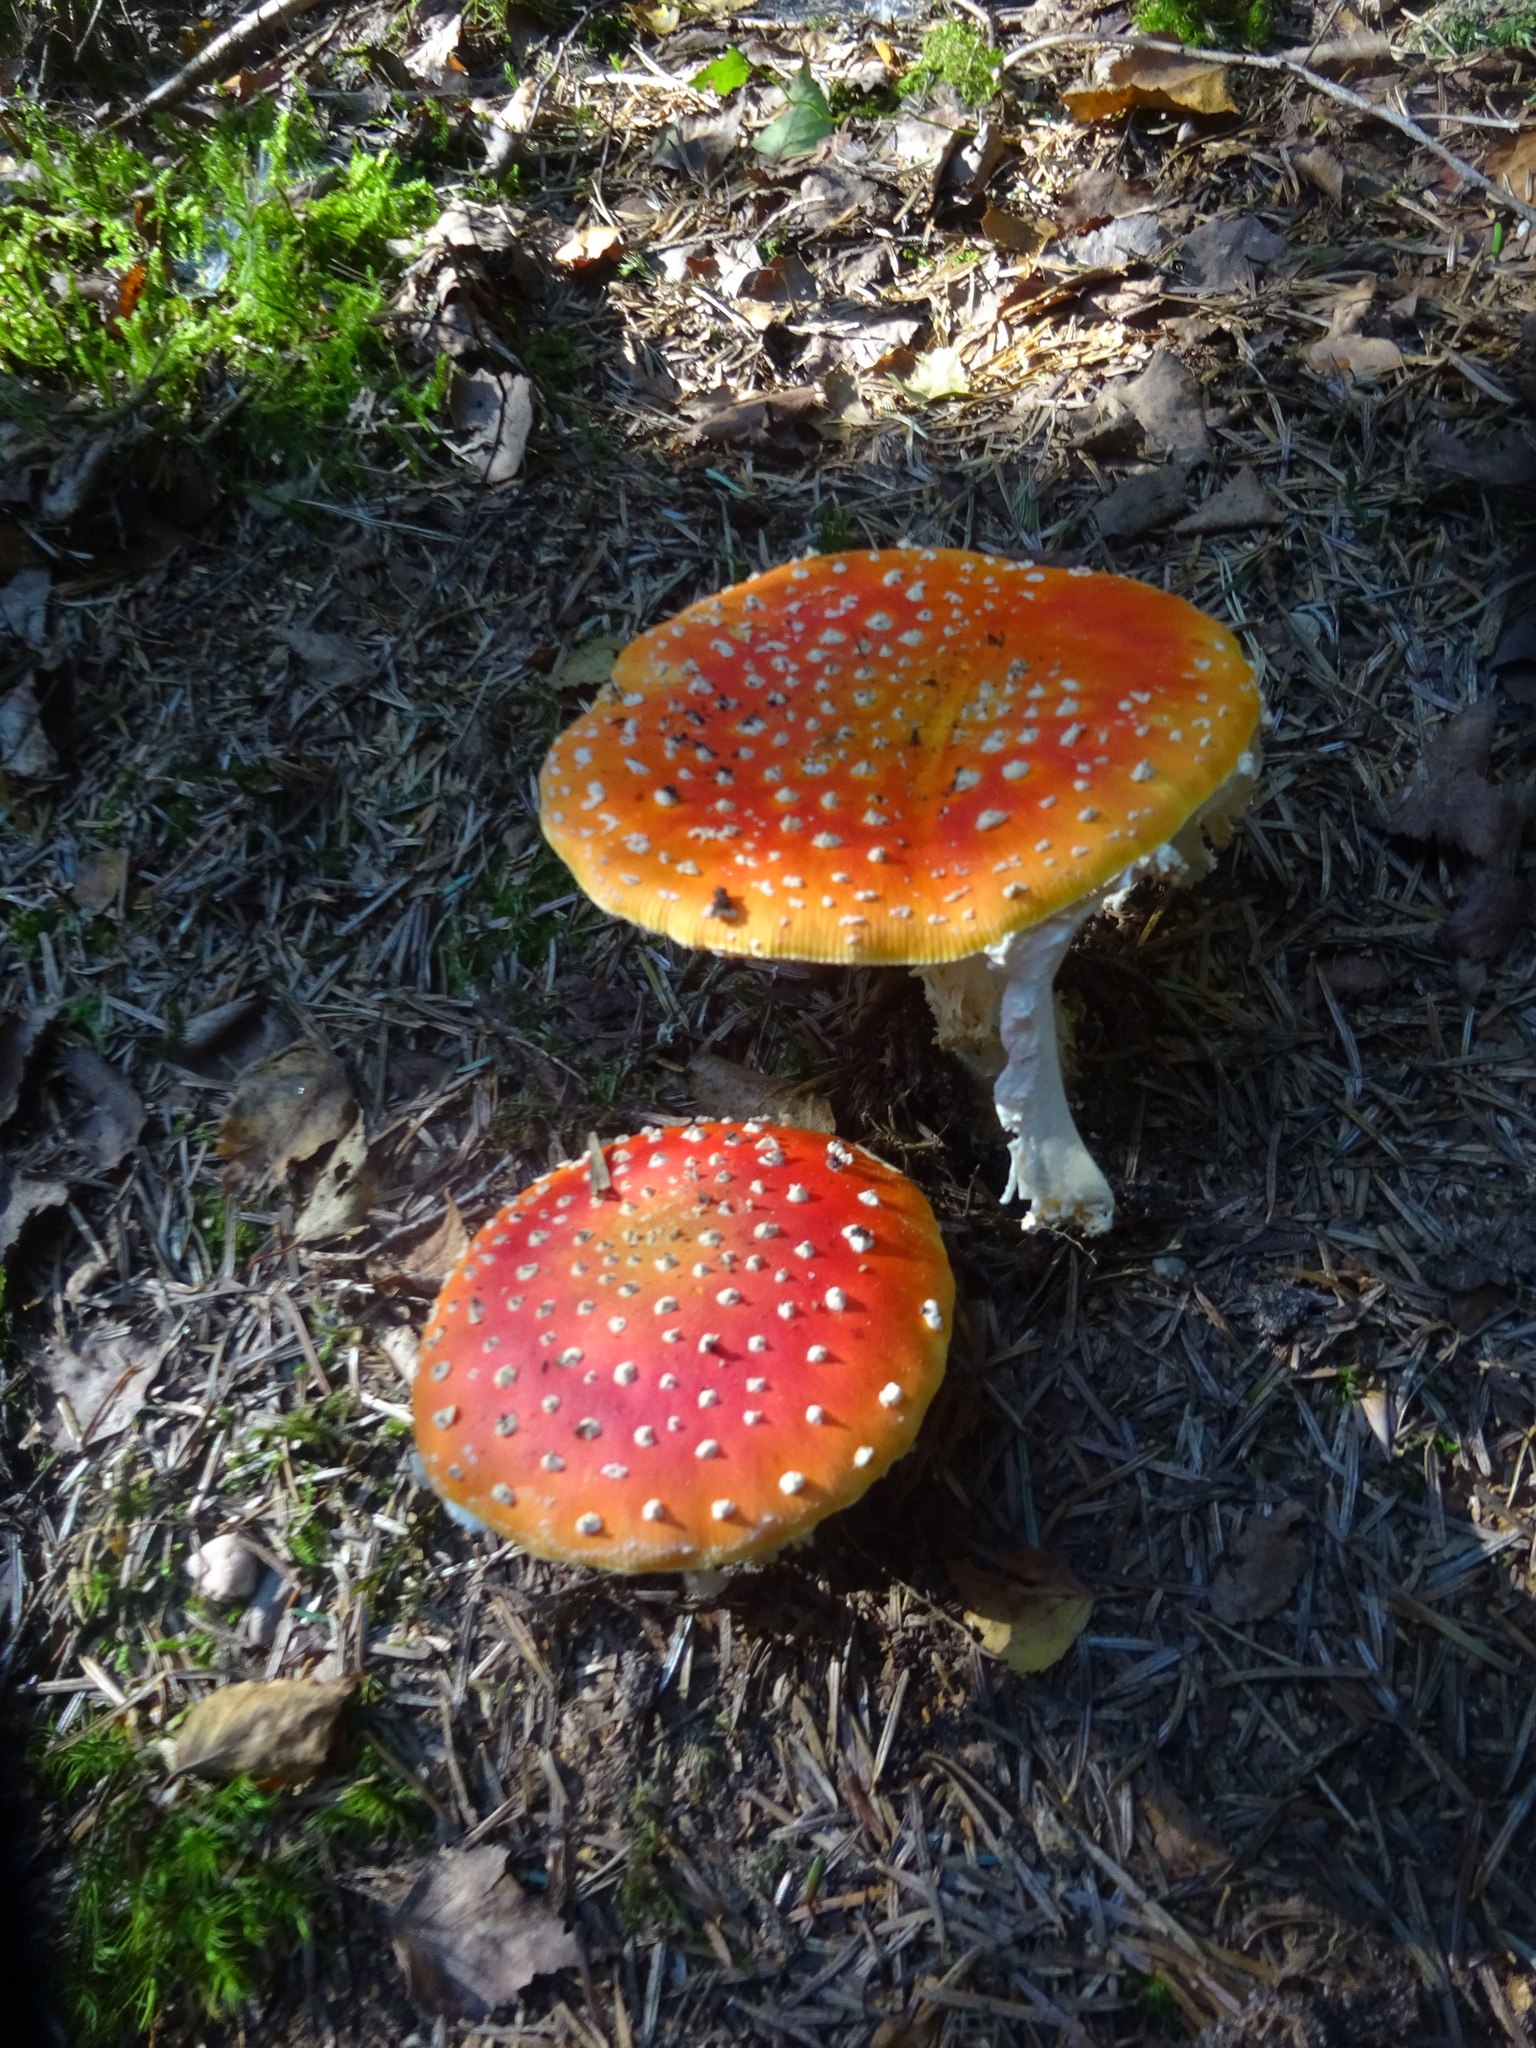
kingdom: Fungi
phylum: Basidiomycota
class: Agaricomycetes
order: Agaricales
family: Amanitaceae
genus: Amanita
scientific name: Amanita muscaria
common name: Fly agaric
